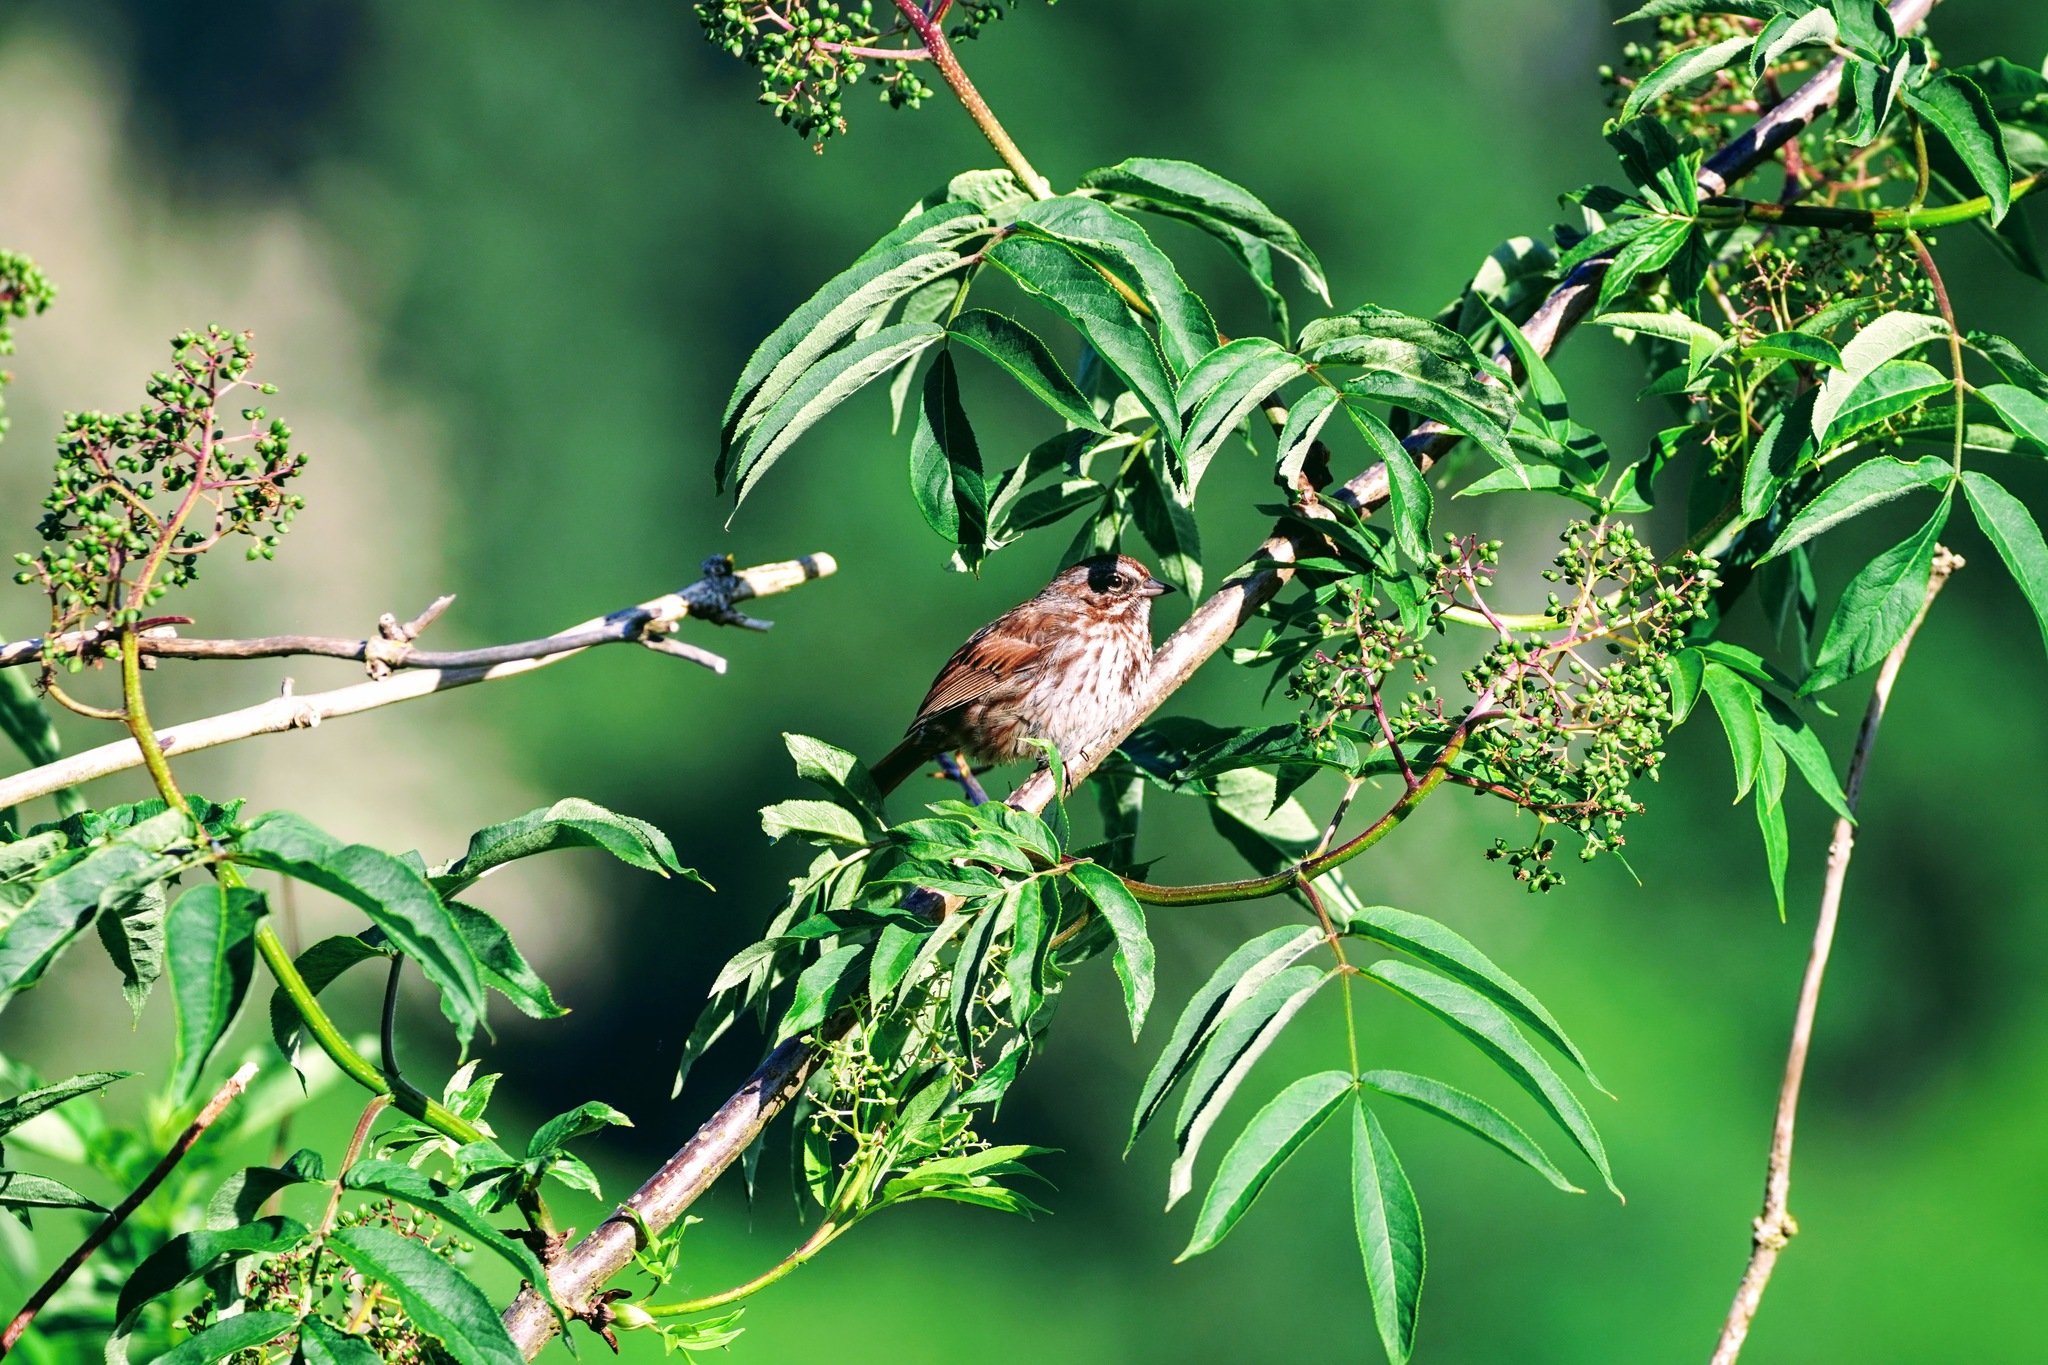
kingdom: Animalia
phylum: Chordata
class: Aves
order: Passeriformes
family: Passerellidae
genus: Melospiza
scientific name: Melospiza melodia
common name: Song sparrow
